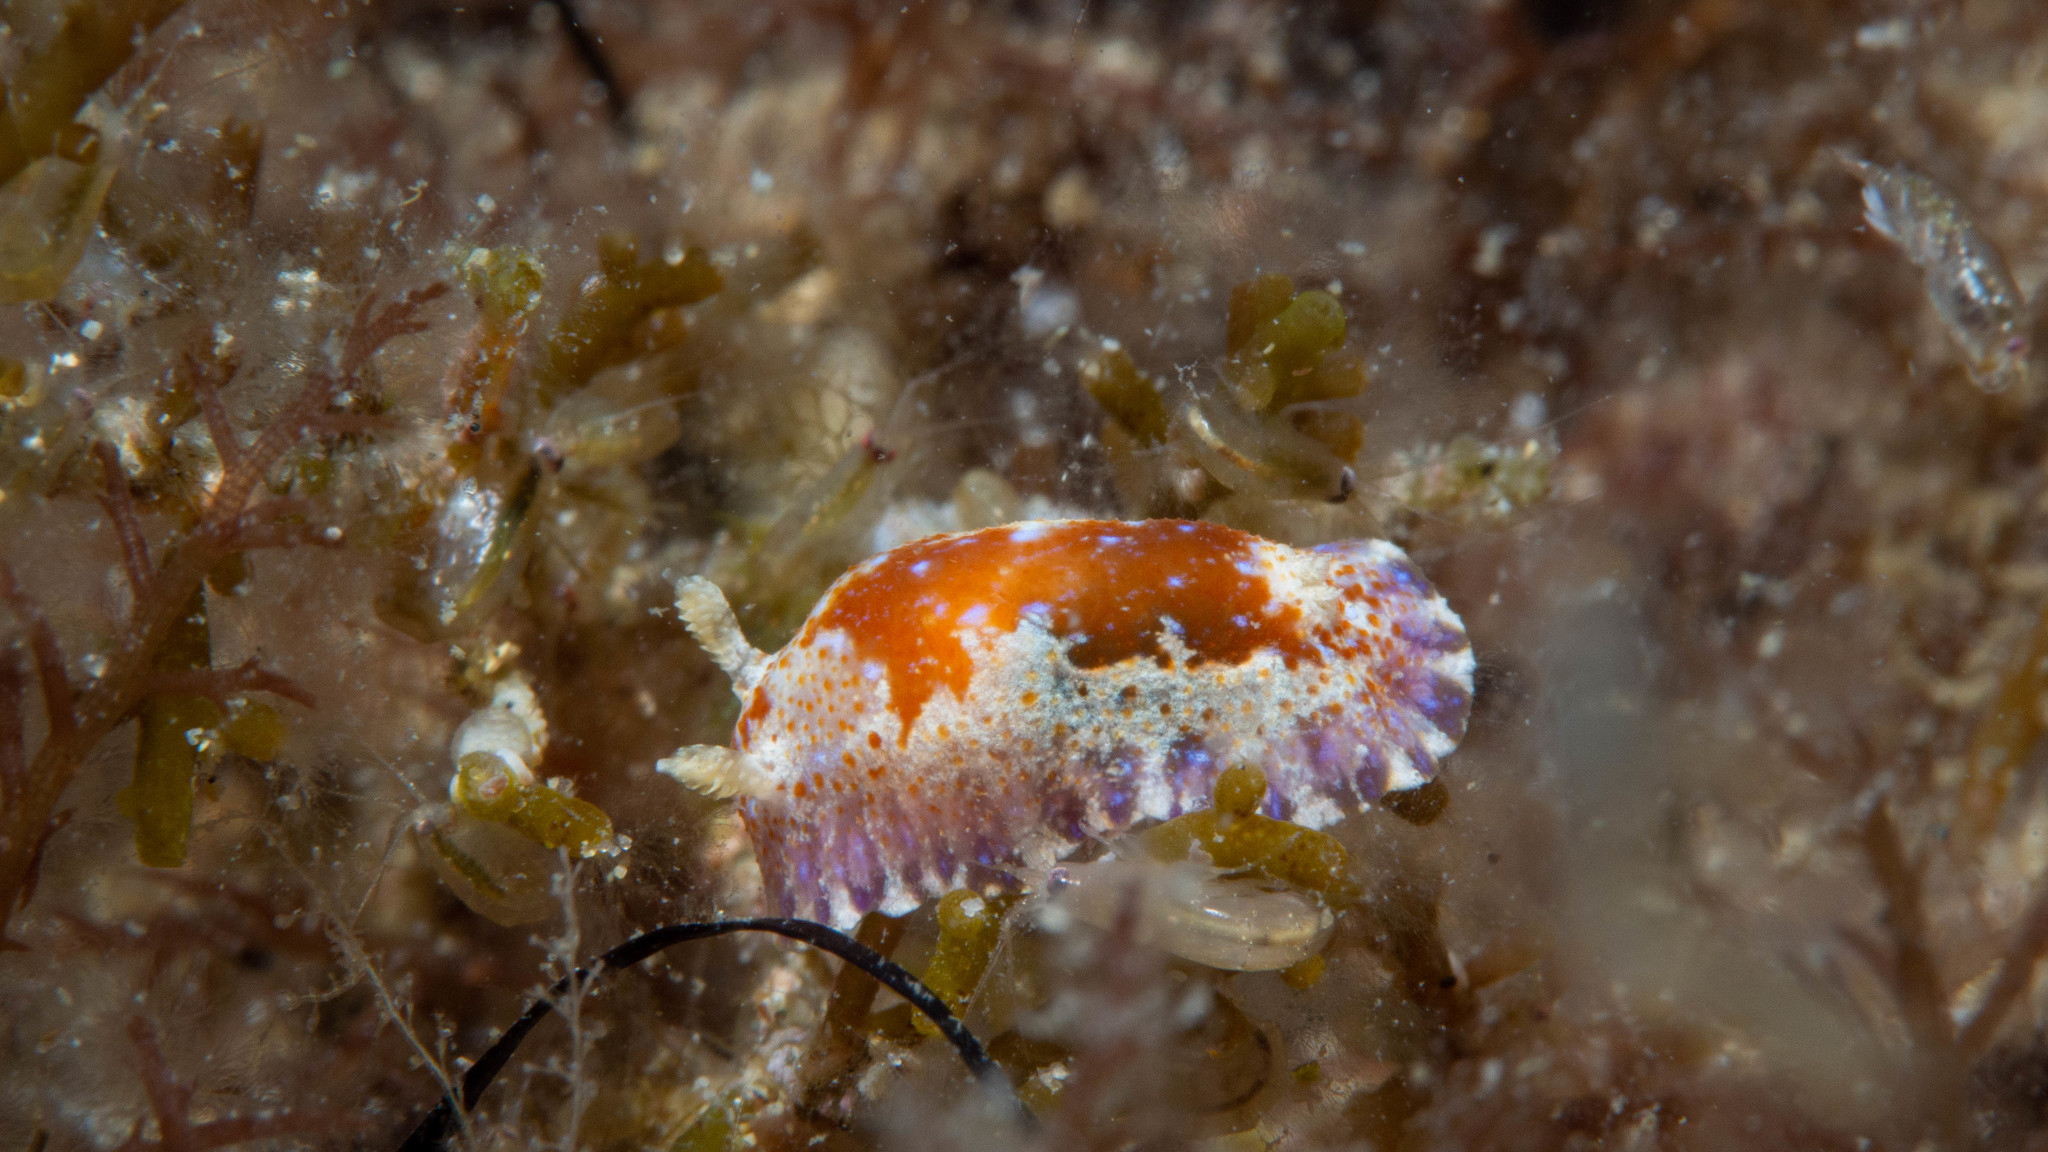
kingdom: Animalia
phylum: Mollusca
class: Gastropoda
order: Nudibranchia
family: Chromodorididae
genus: Chromodoris
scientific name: Chromodoris alternata
